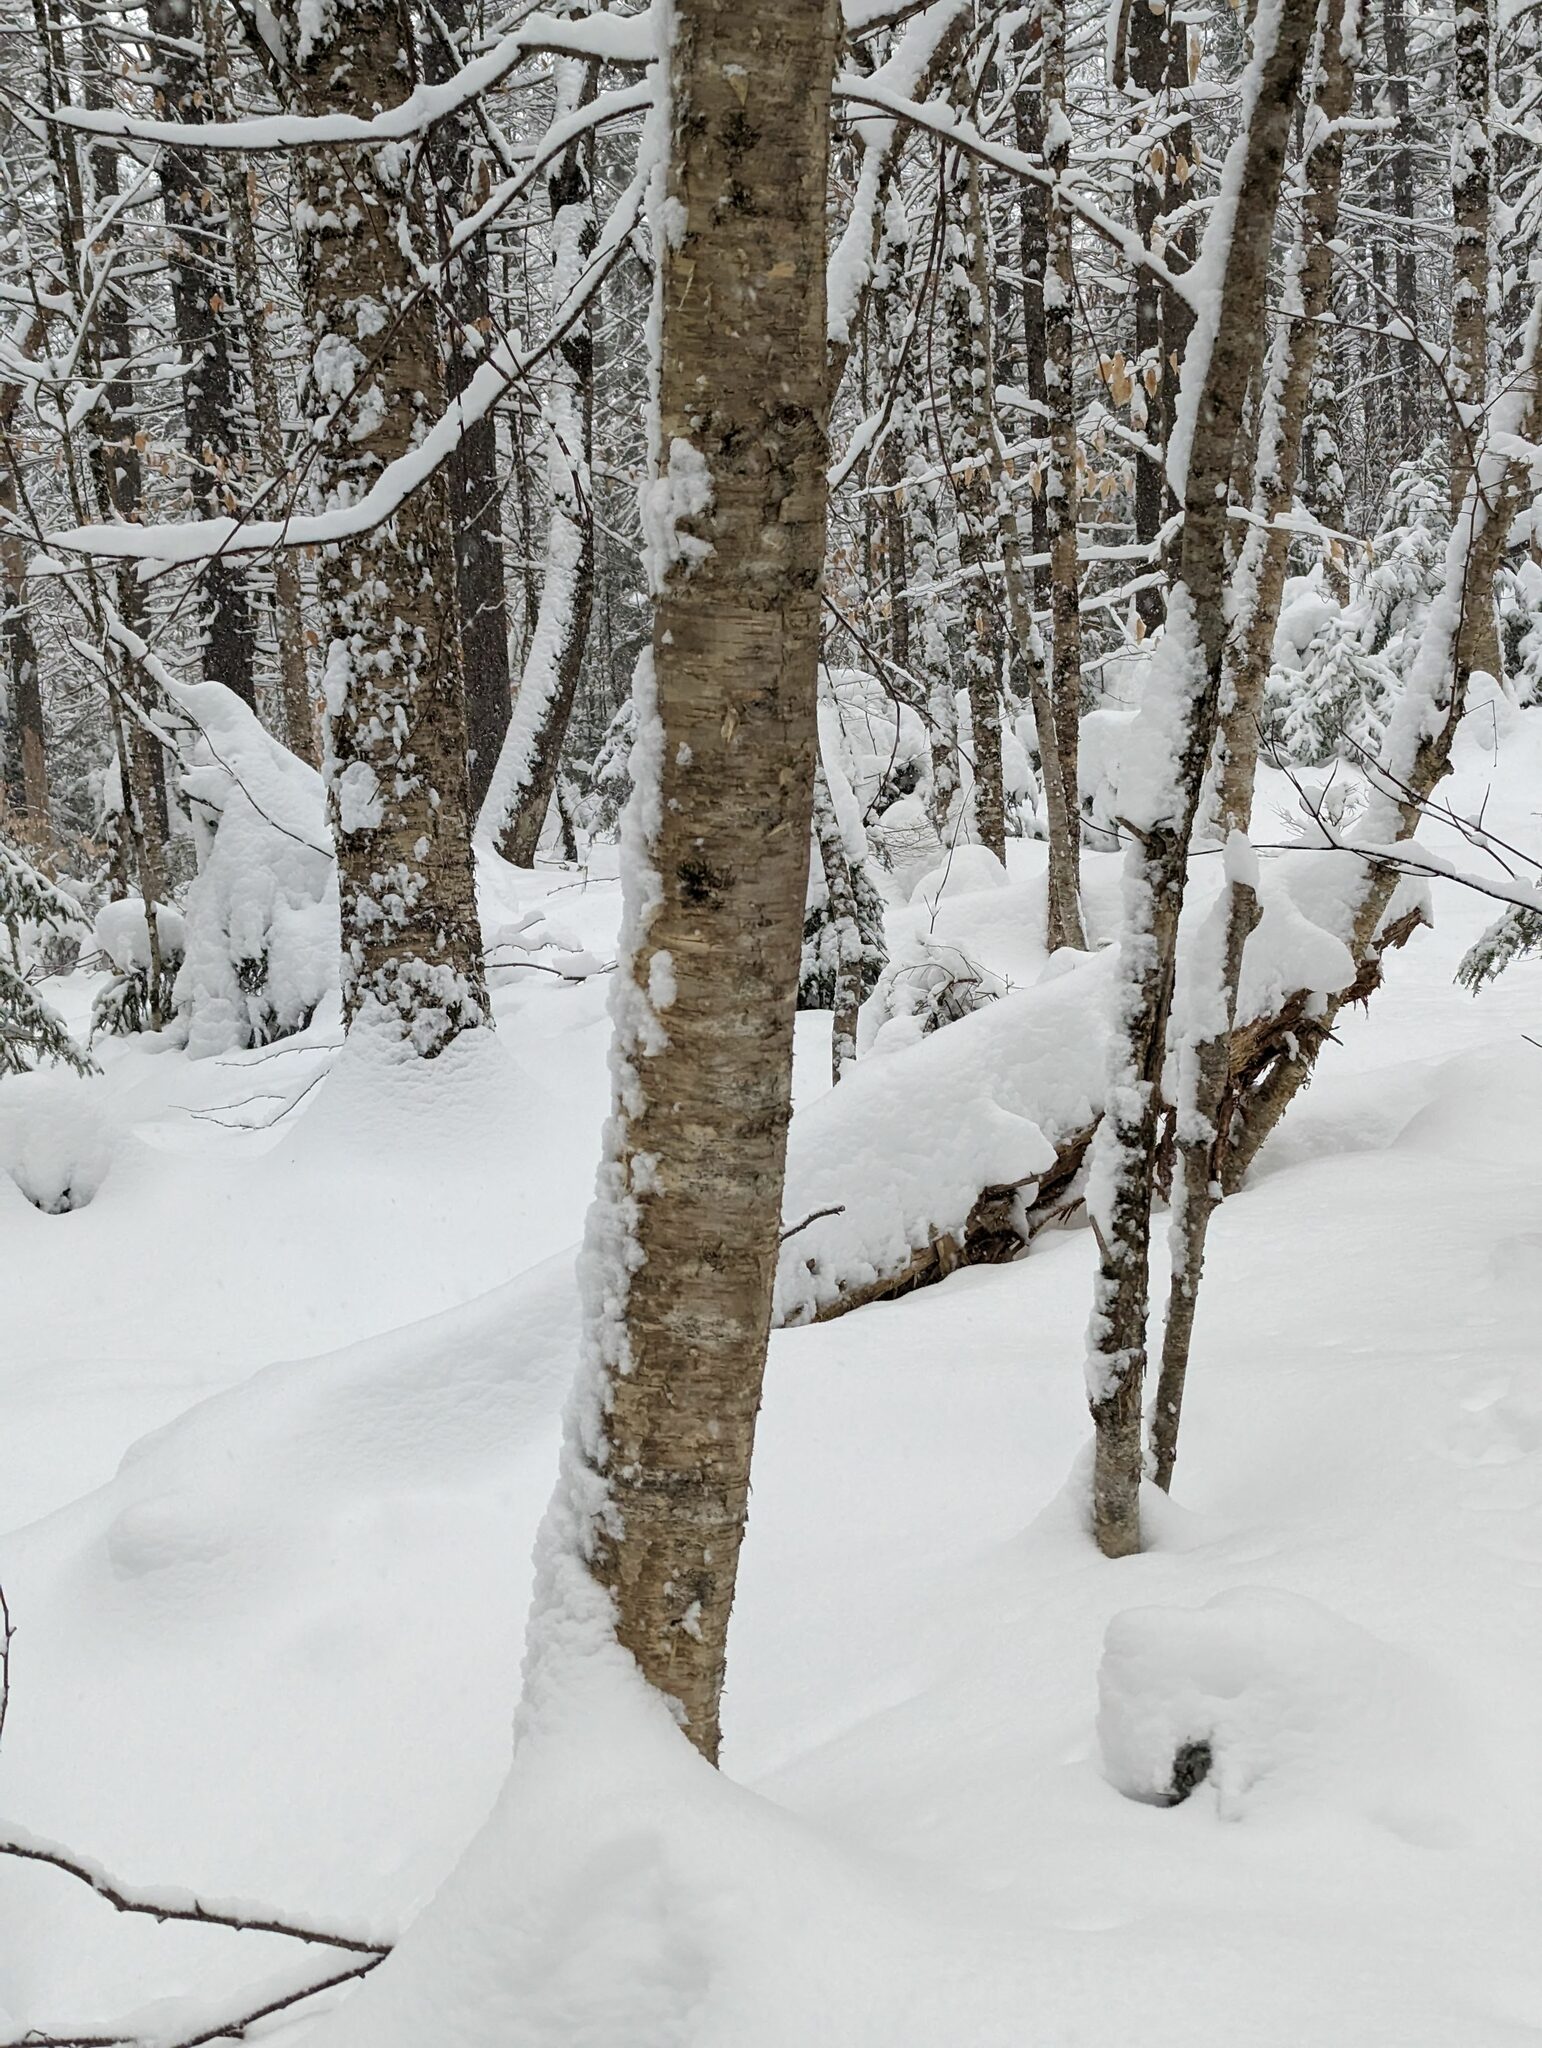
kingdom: Plantae
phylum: Tracheophyta
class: Magnoliopsida
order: Fagales
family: Betulaceae
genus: Betula
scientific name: Betula alleghaniensis
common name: Yellow birch
